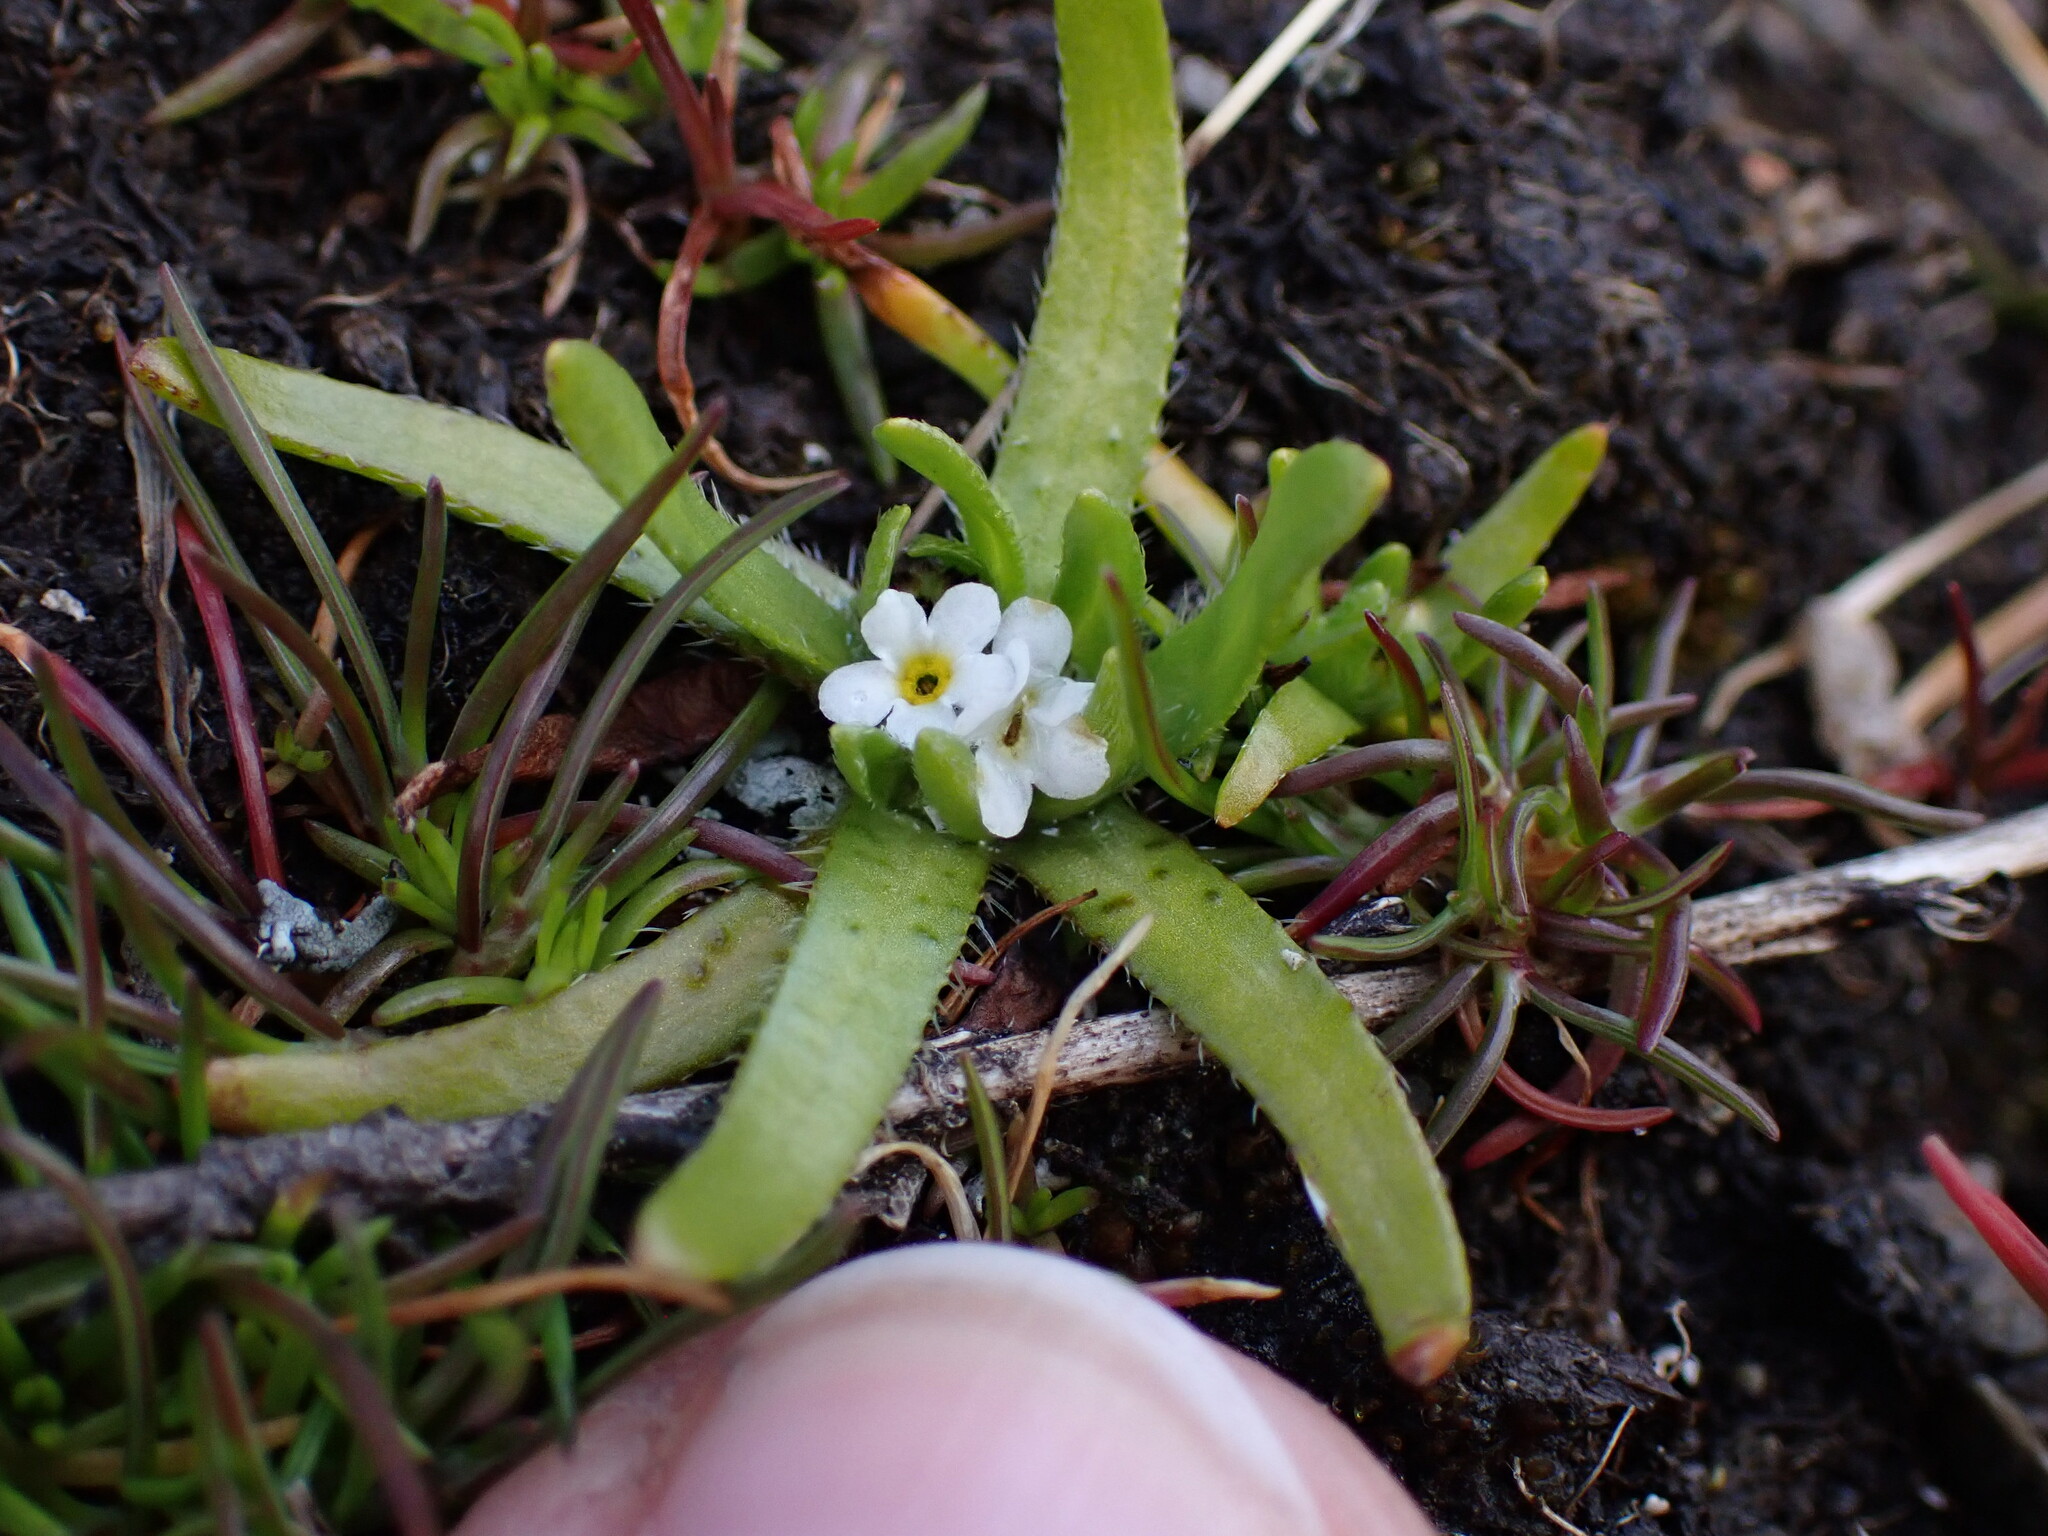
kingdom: Plantae
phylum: Tracheophyta
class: Magnoliopsida
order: Boraginales
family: Boraginaceae
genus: Plagiobothrys
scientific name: Plagiobothrys scouleri
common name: White forget-me-not
